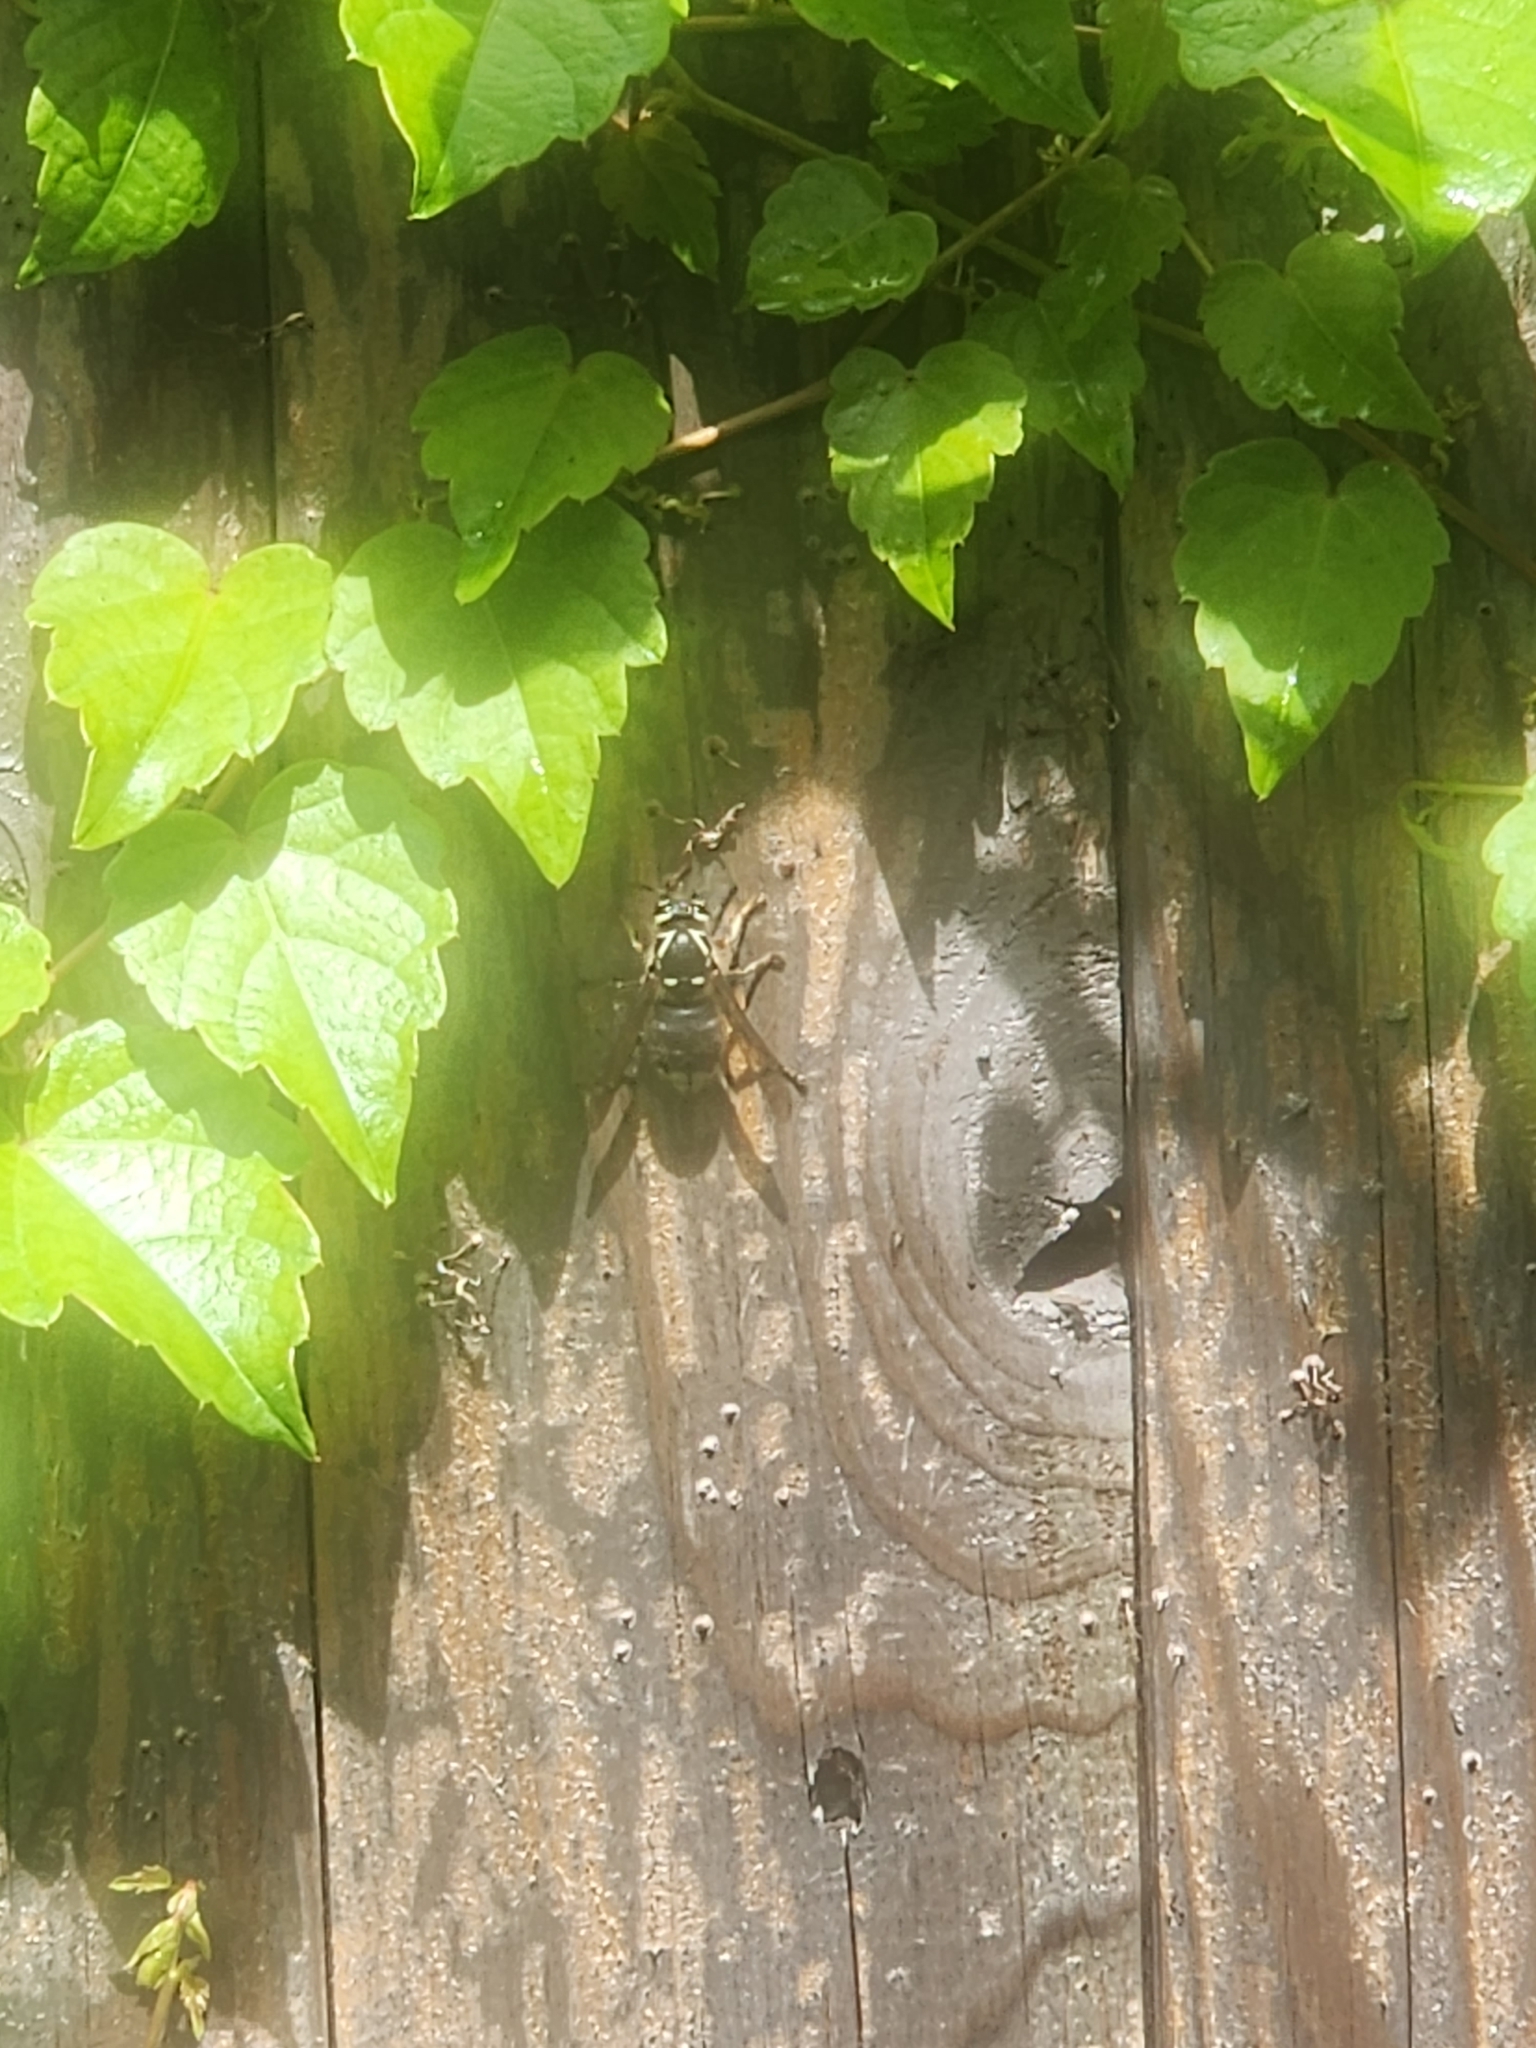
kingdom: Animalia
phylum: Arthropoda
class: Insecta
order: Hymenoptera
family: Vespidae
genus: Dolichovespula
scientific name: Dolichovespula maculata
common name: Bald-faced hornet
